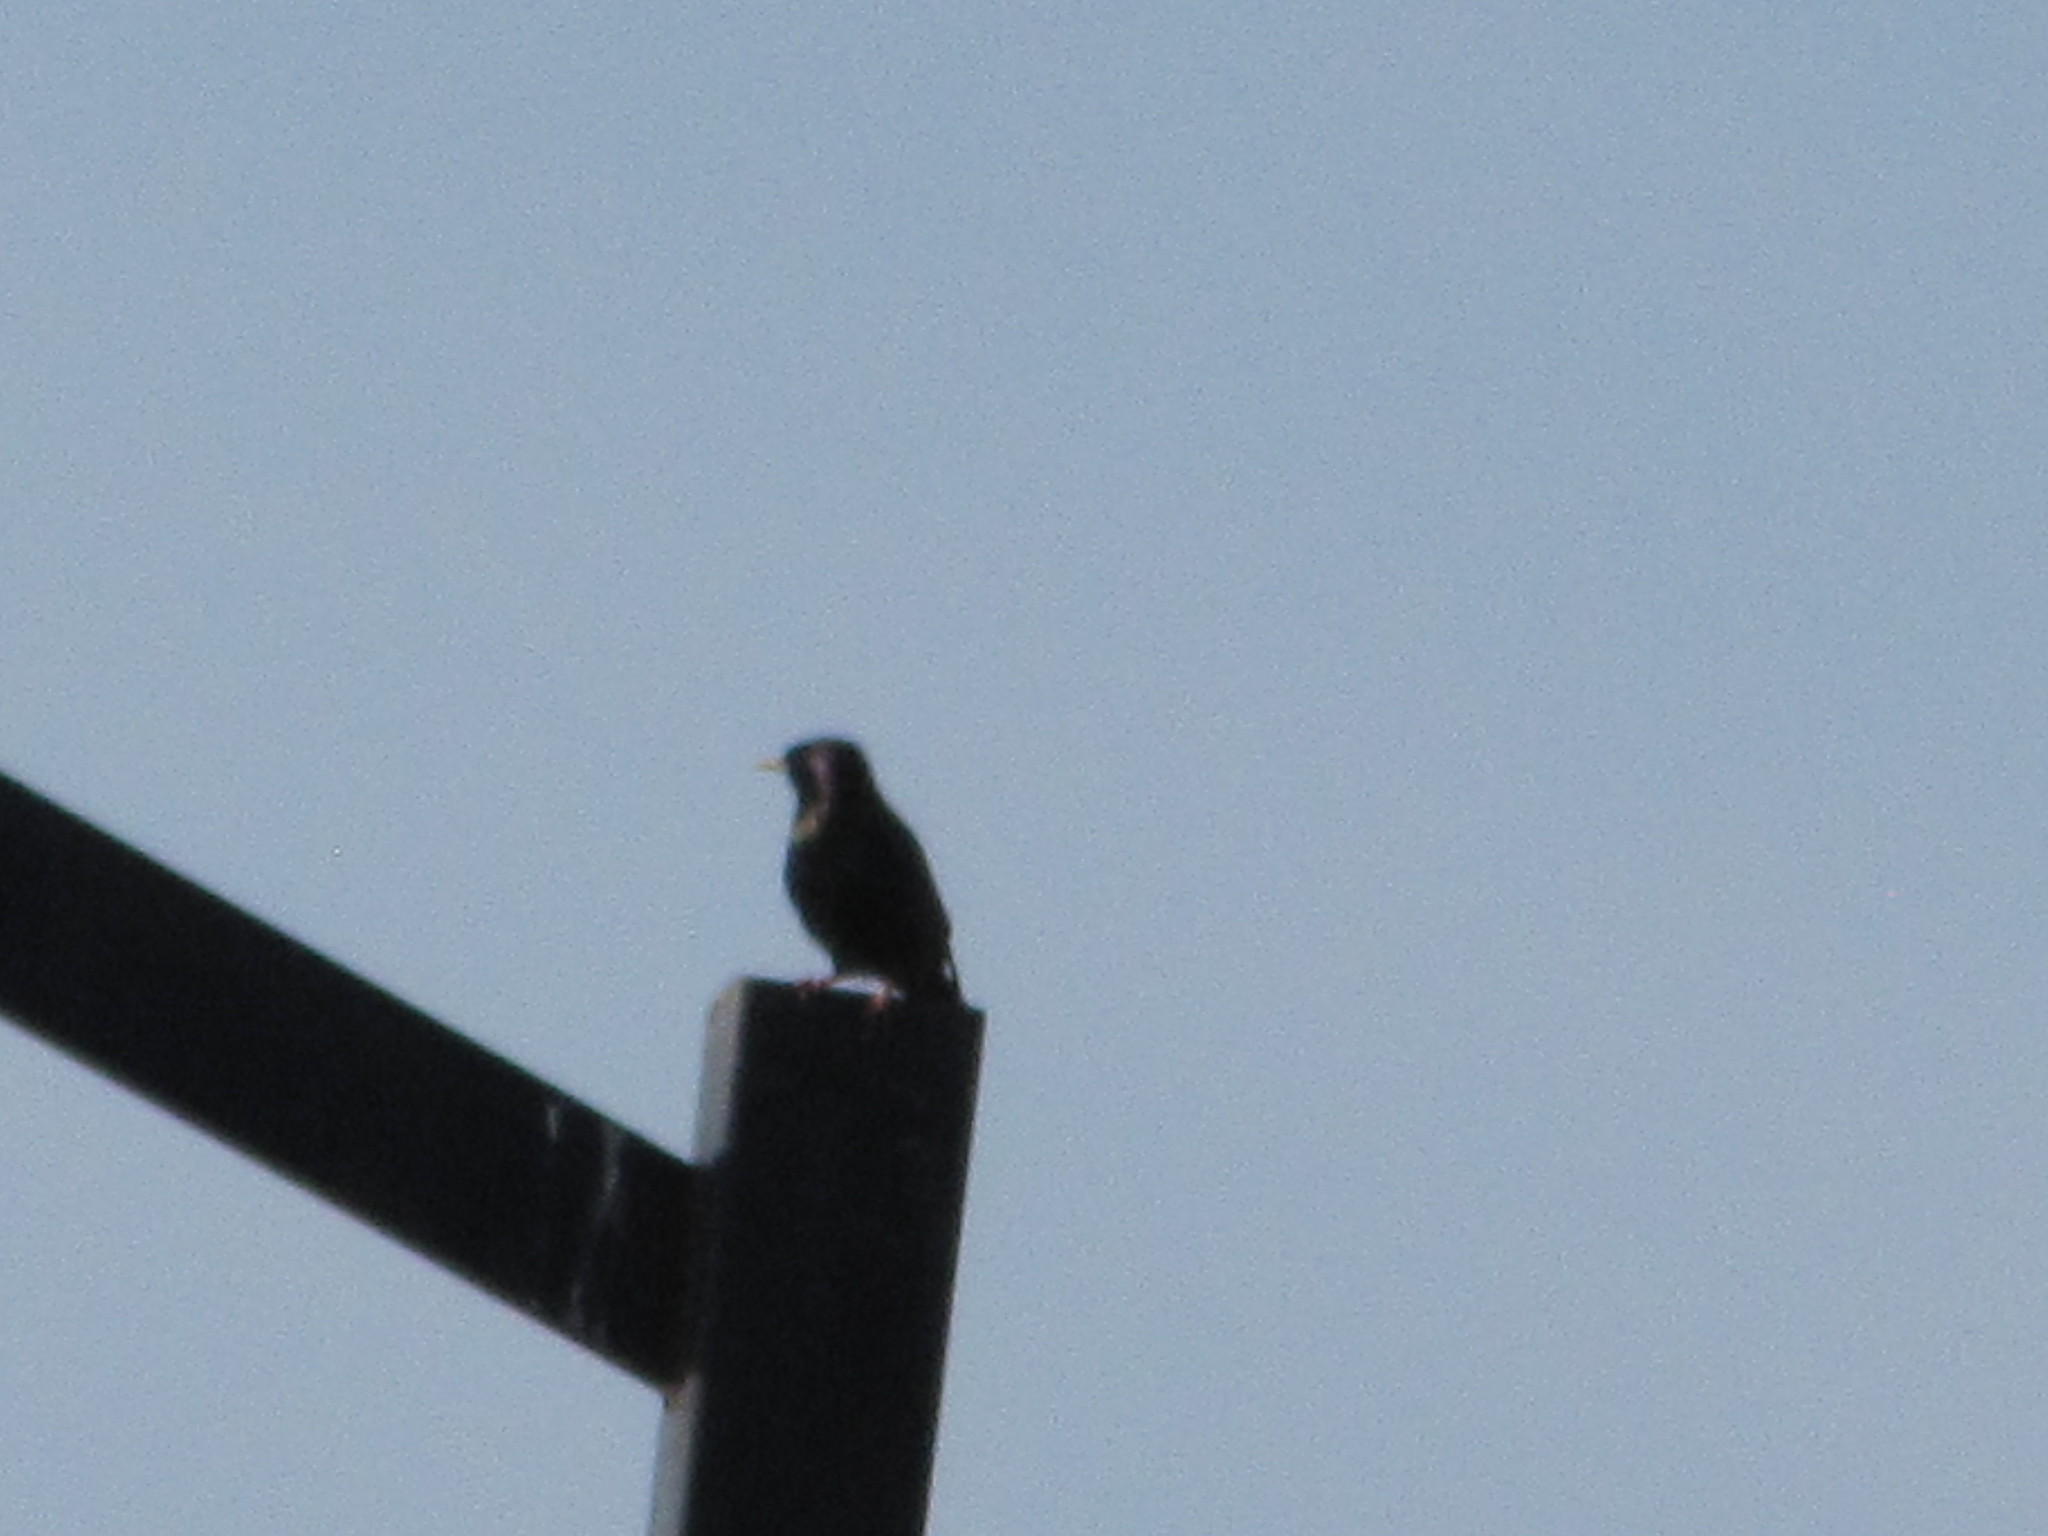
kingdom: Animalia
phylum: Chordata
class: Aves
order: Passeriformes
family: Sturnidae
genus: Sturnus
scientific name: Sturnus vulgaris
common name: Common starling
